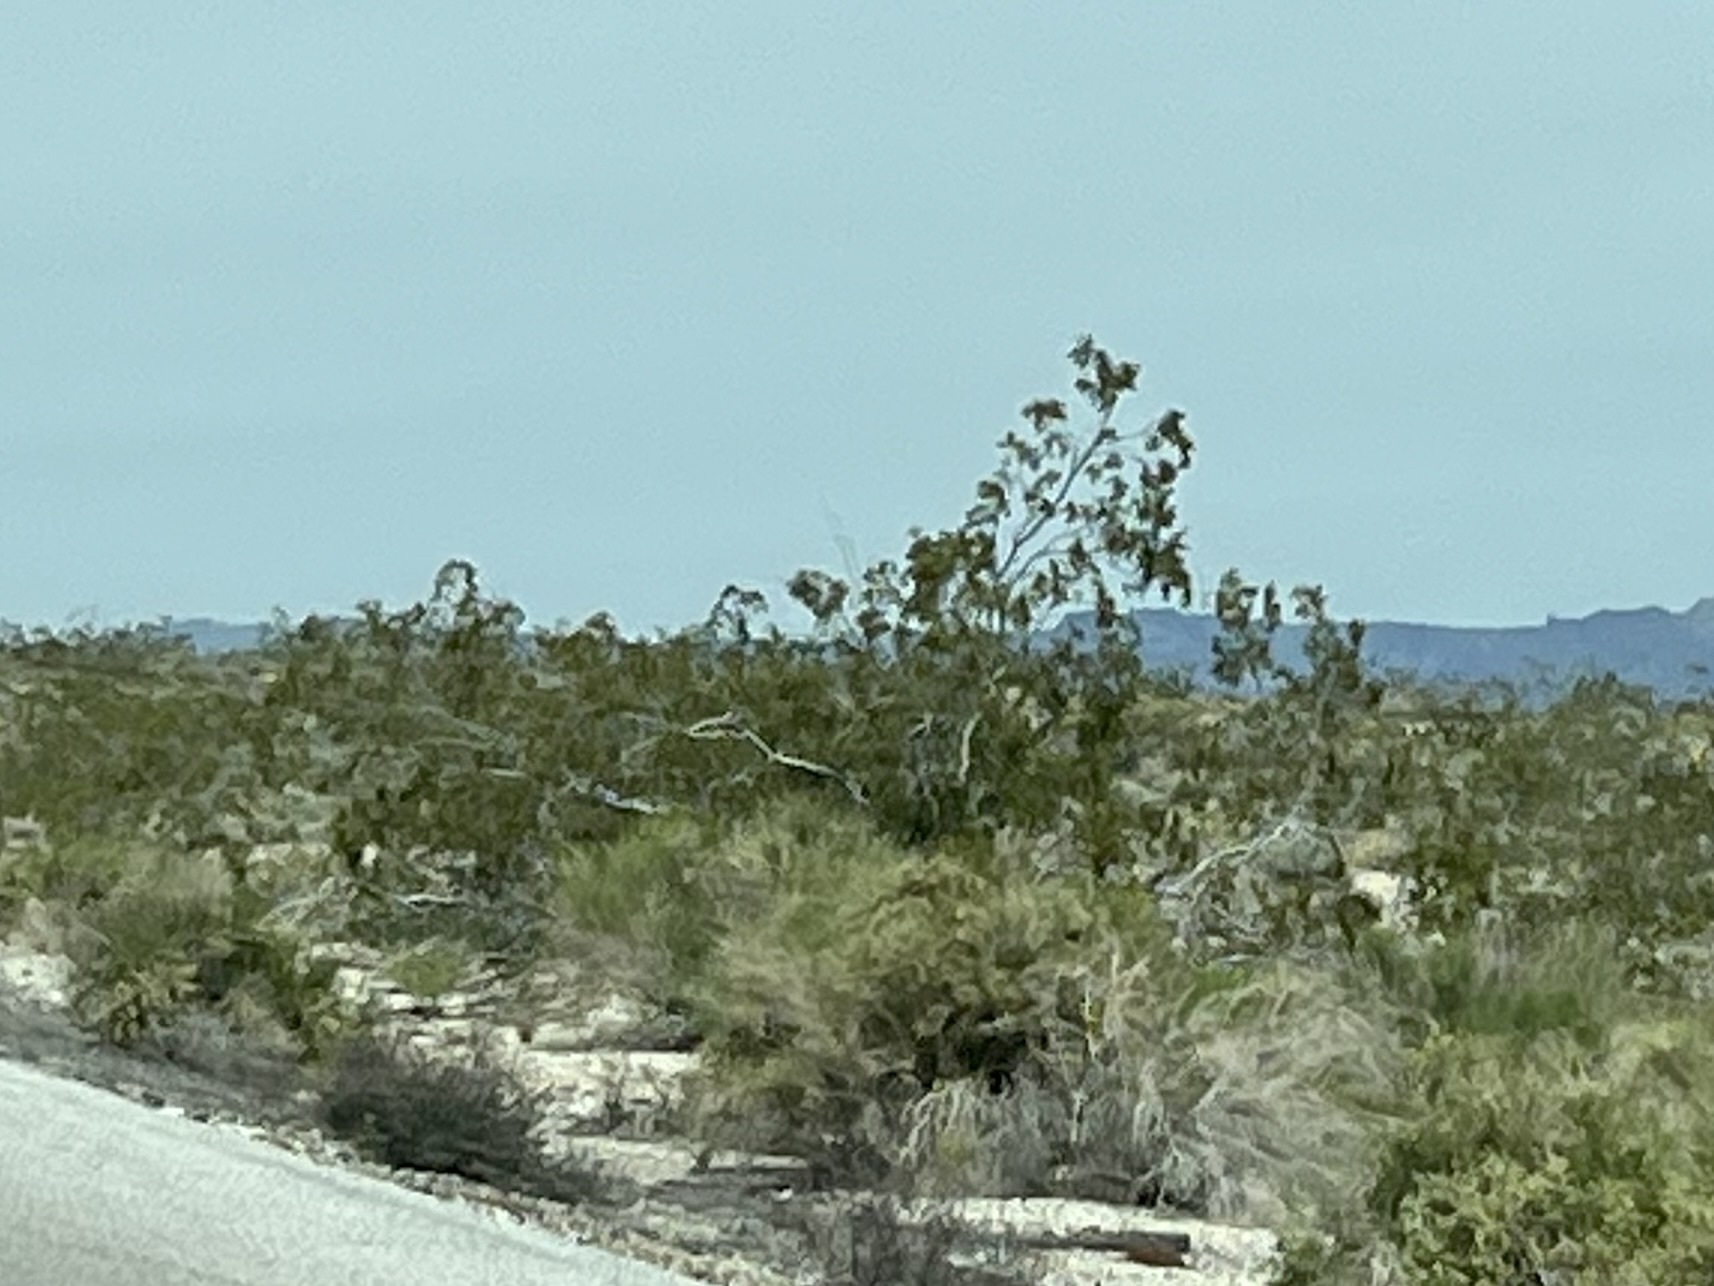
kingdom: Plantae
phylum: Tracheophyta
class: Magnoliopsida
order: Zygophyllales
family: Zygophyllaceae
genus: Larrea
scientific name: Larrea tridentata
